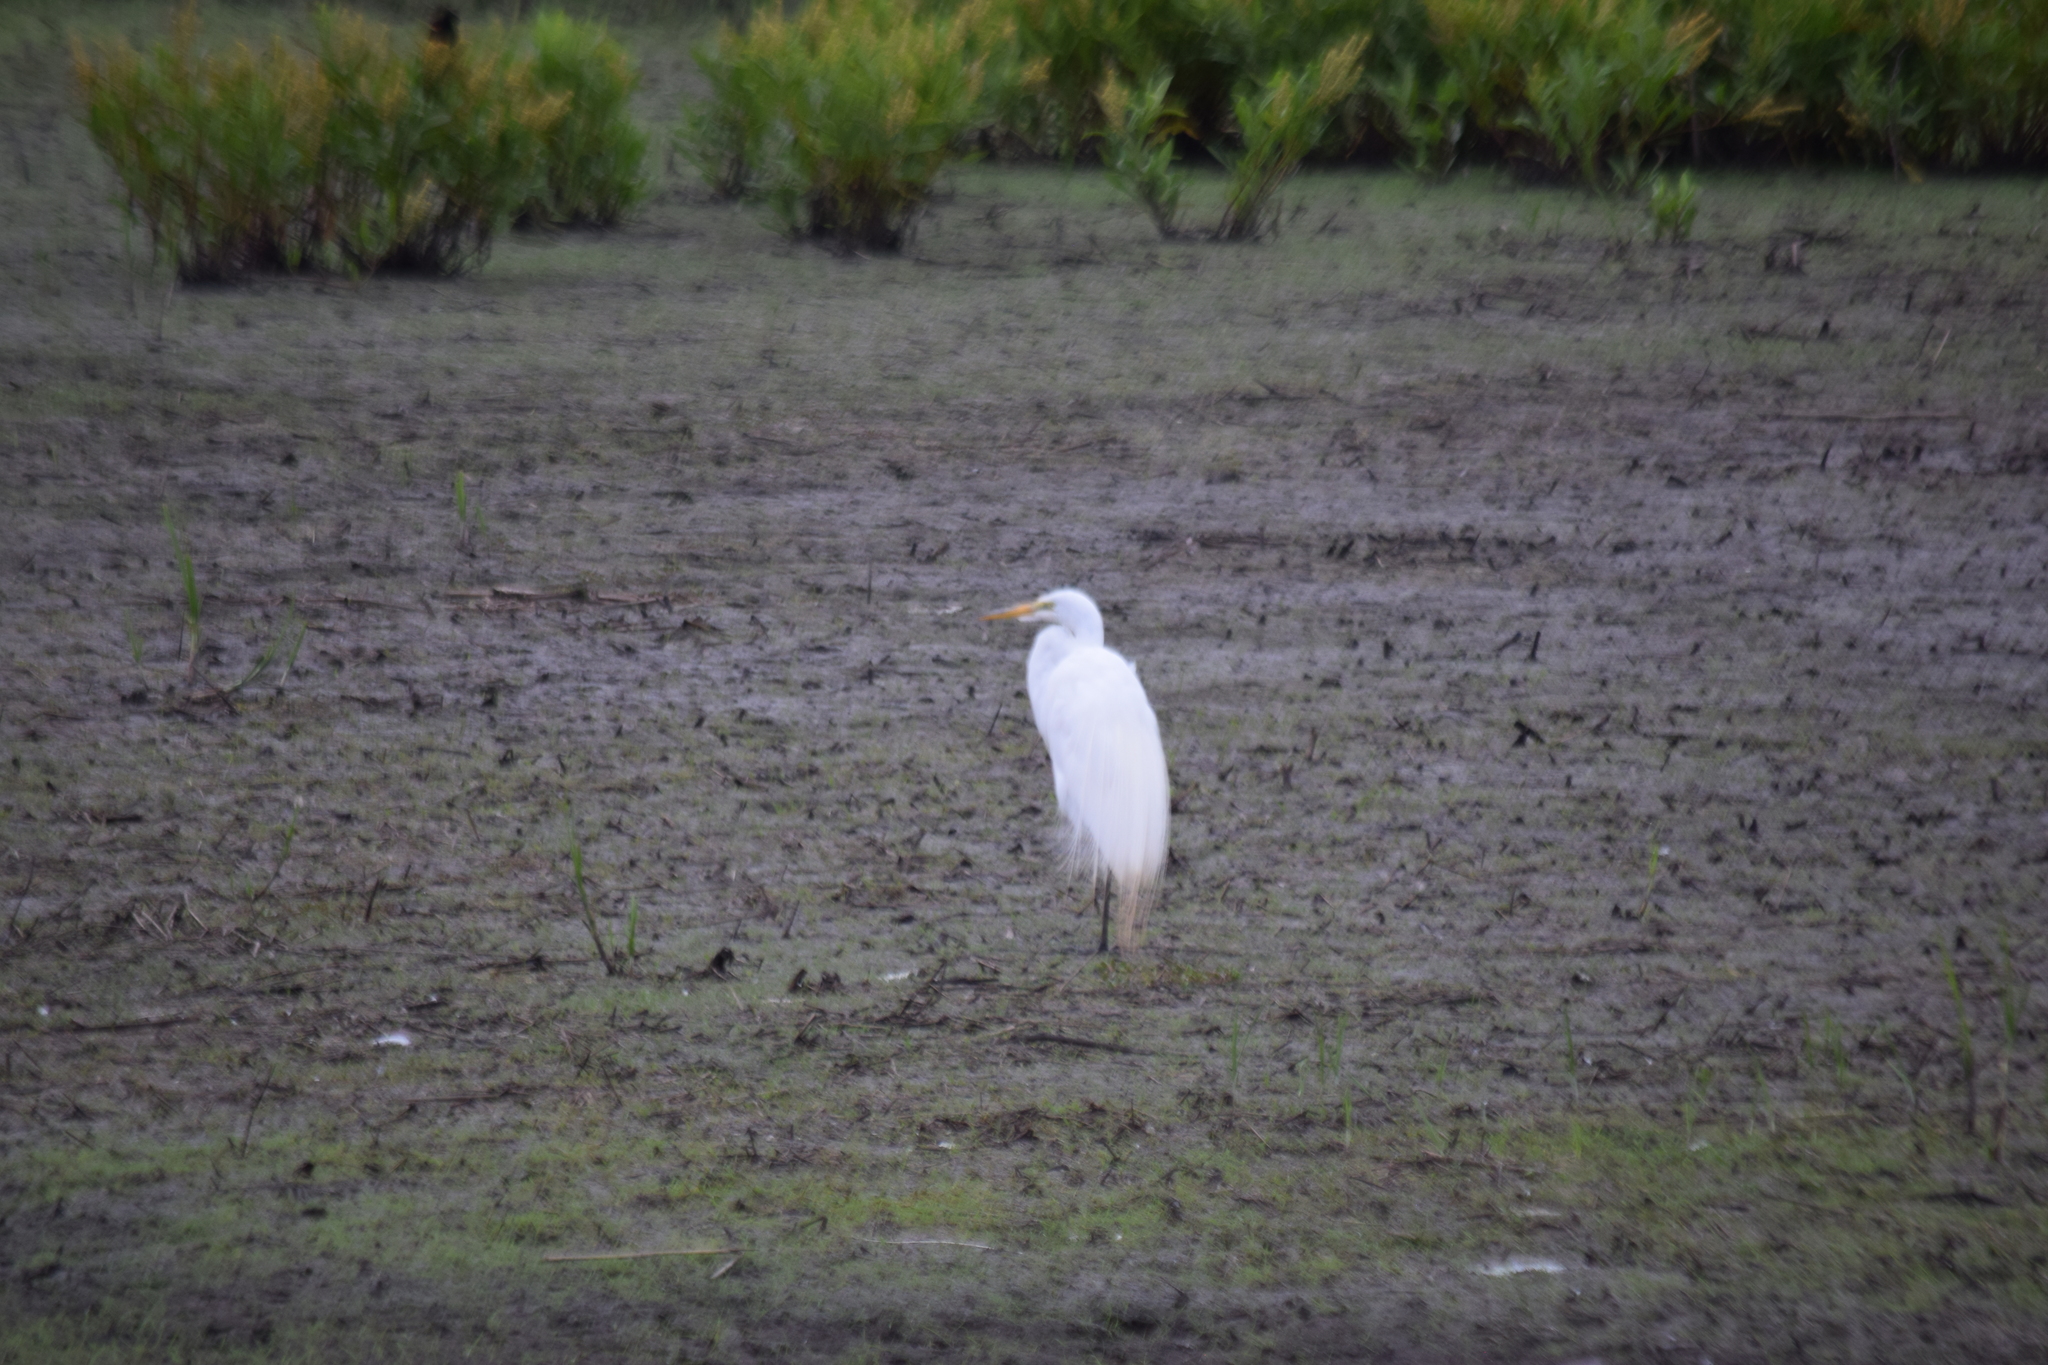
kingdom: Animalia
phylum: Chordata
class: Aves
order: Pelecaniformes
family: Ardeidae
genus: Ardea
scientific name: Ardea alba
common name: Great egret
